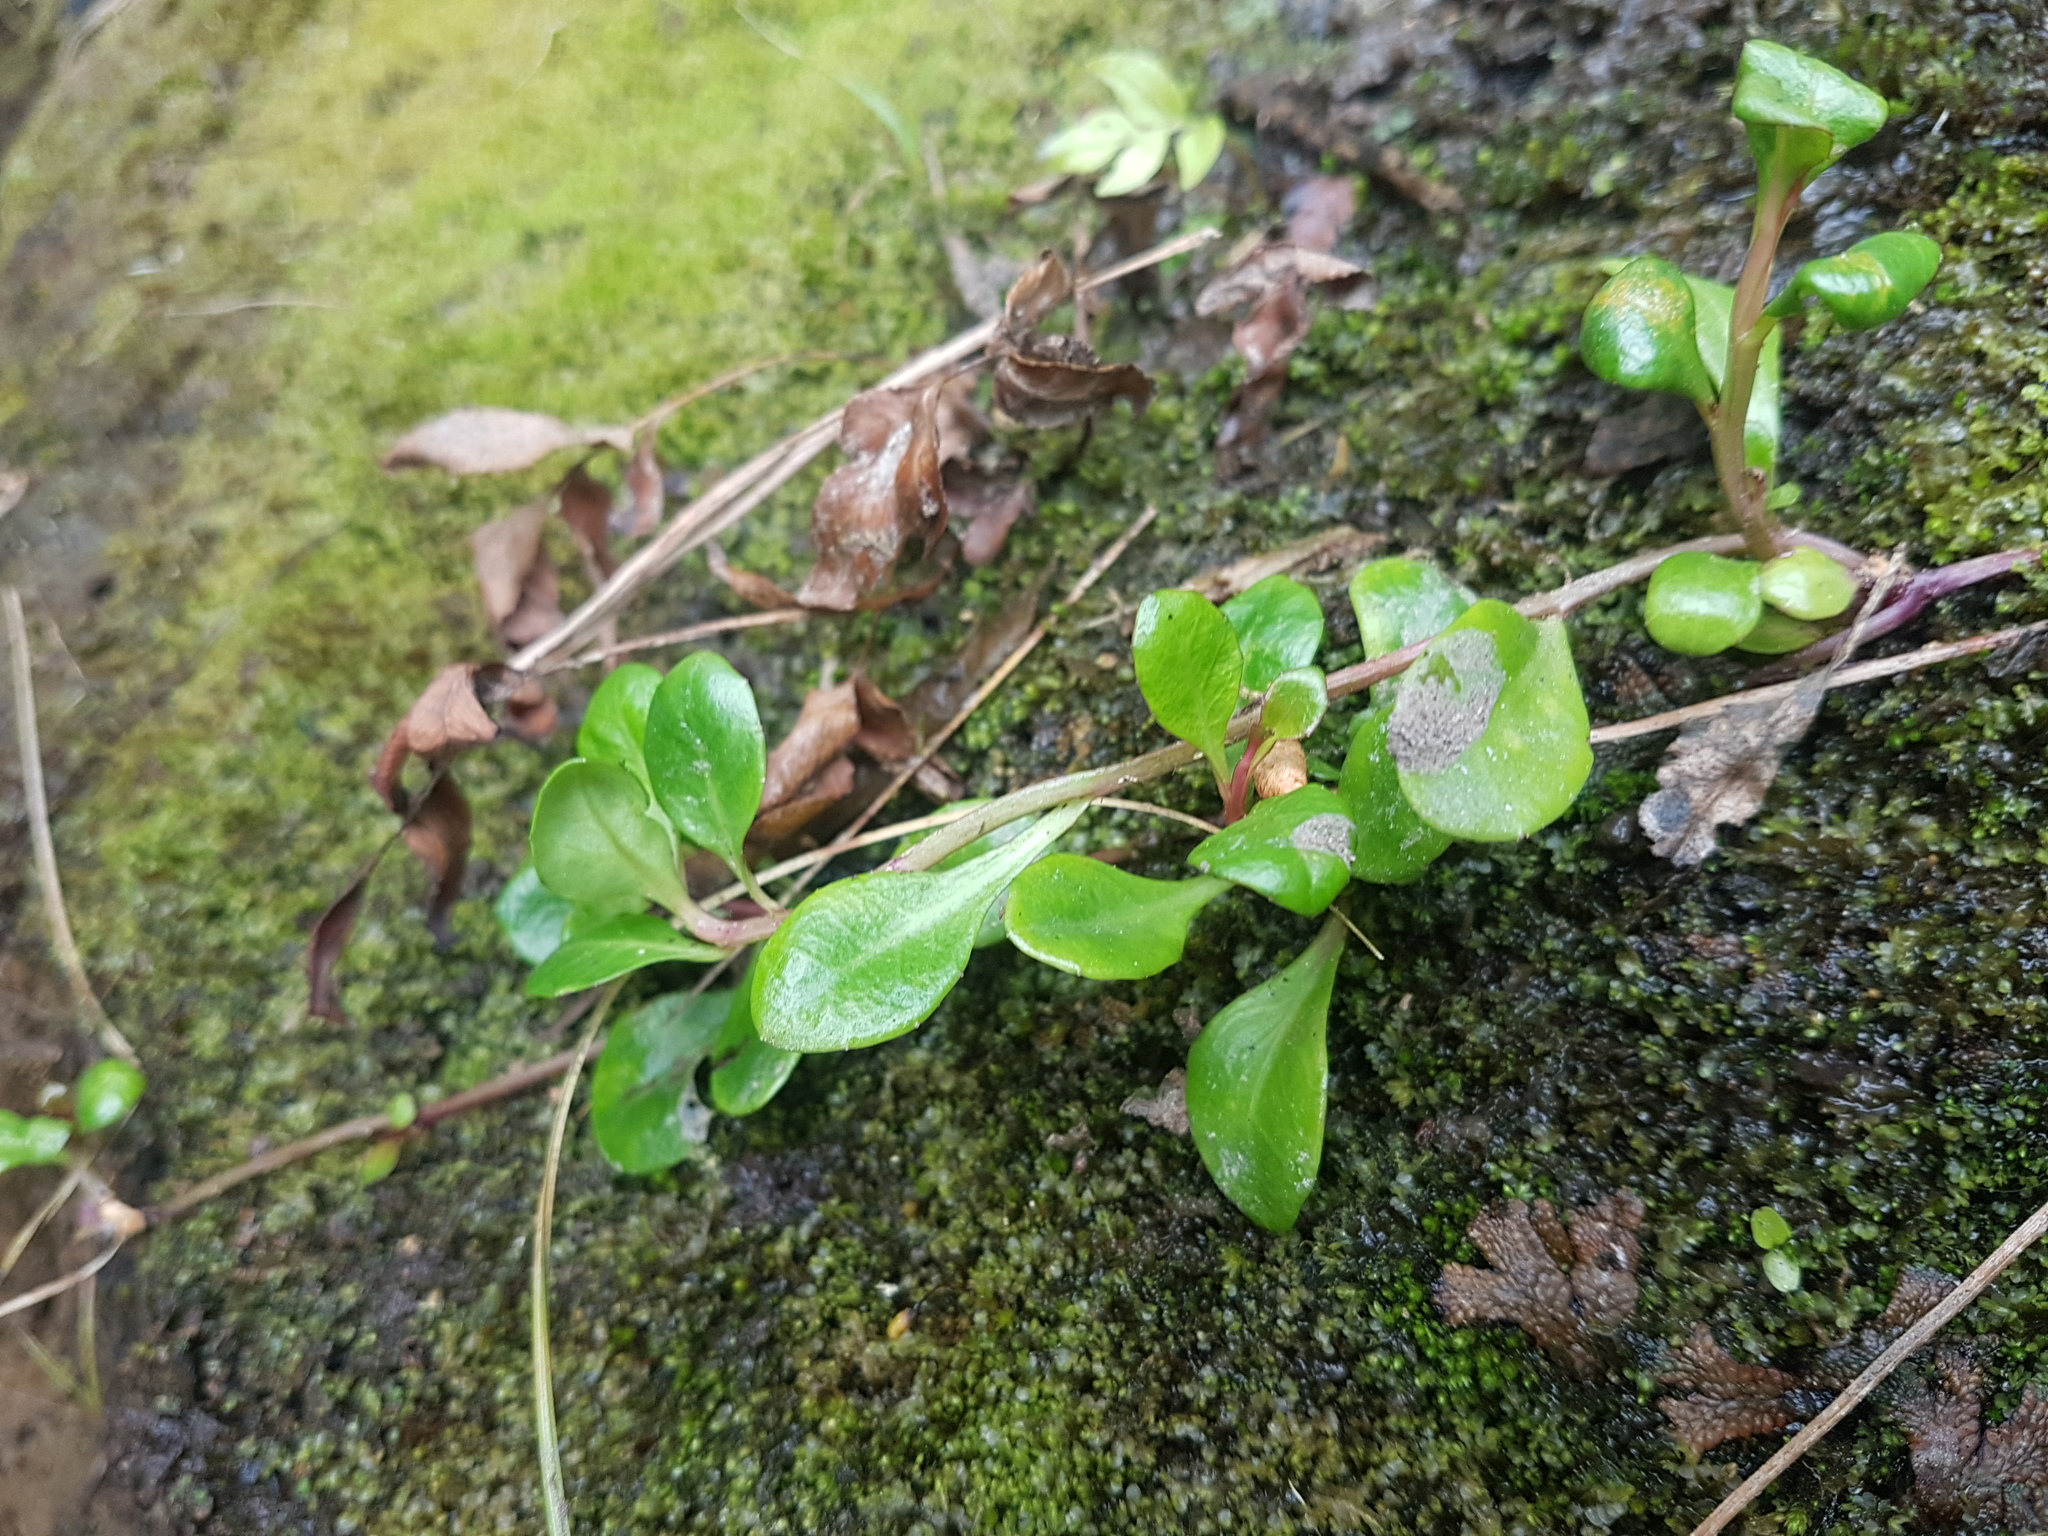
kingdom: Plantae
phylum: Tracheophyta
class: Magnoliopsida
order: Asterales
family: Campanulaceae
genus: Lobelia
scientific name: Lobelia anceps
